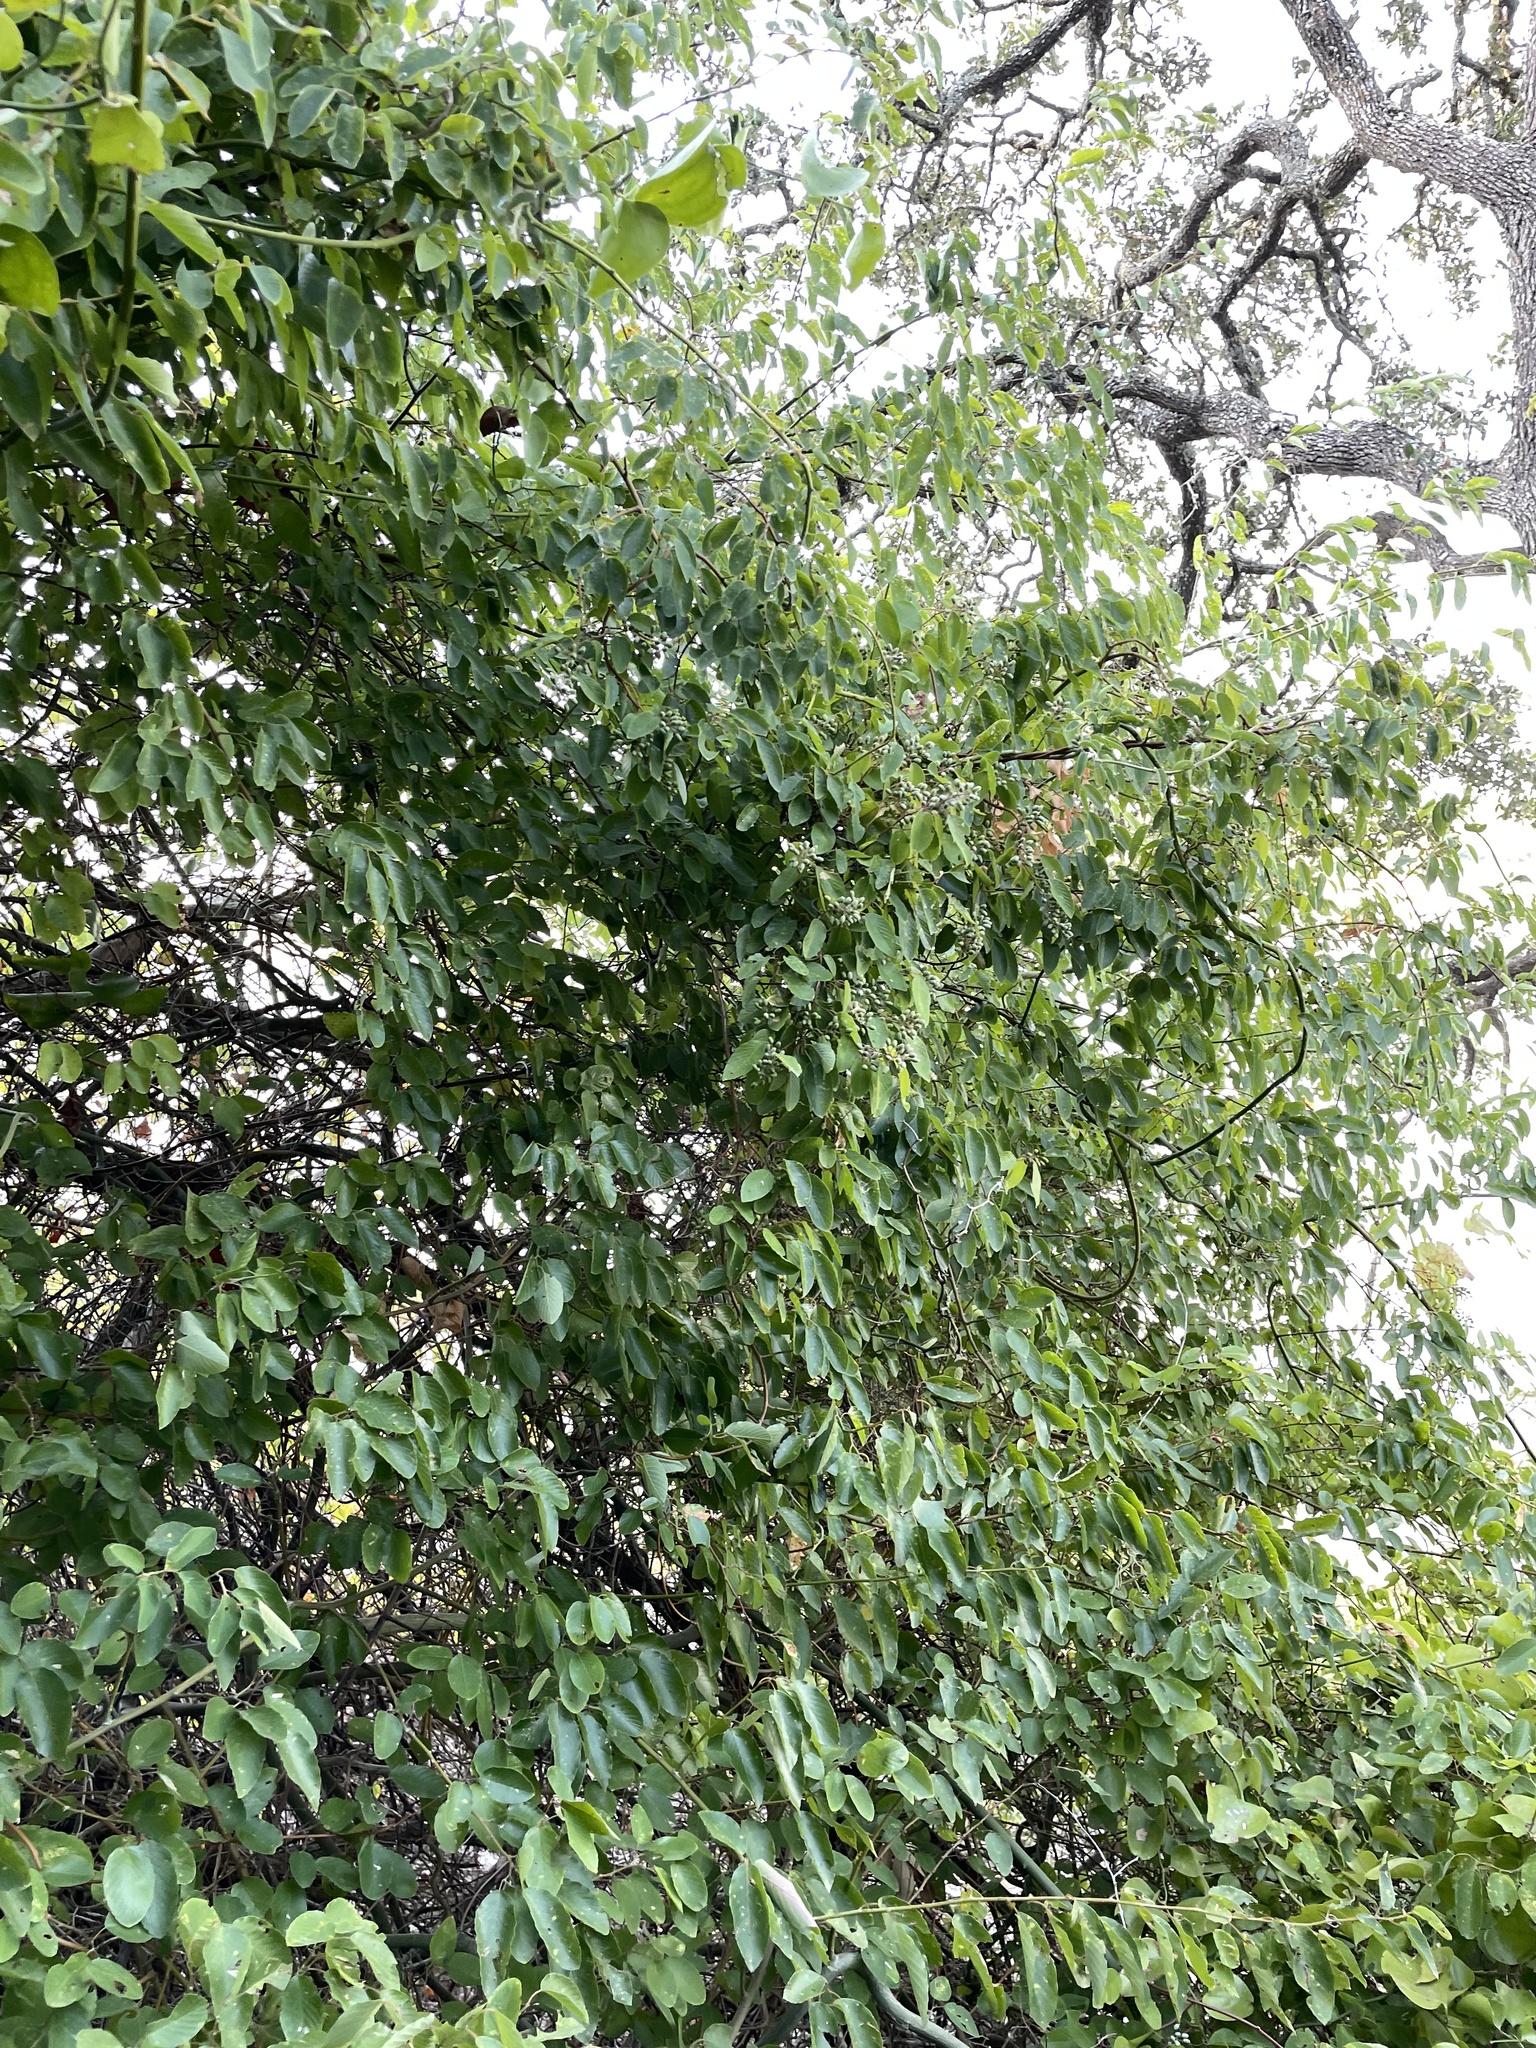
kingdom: Plantae
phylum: Tracheophyta
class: Magnoliopsida
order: Rosales
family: Rhamnaceae
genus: Berchemia
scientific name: Berchemia scandens
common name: Supplejack
